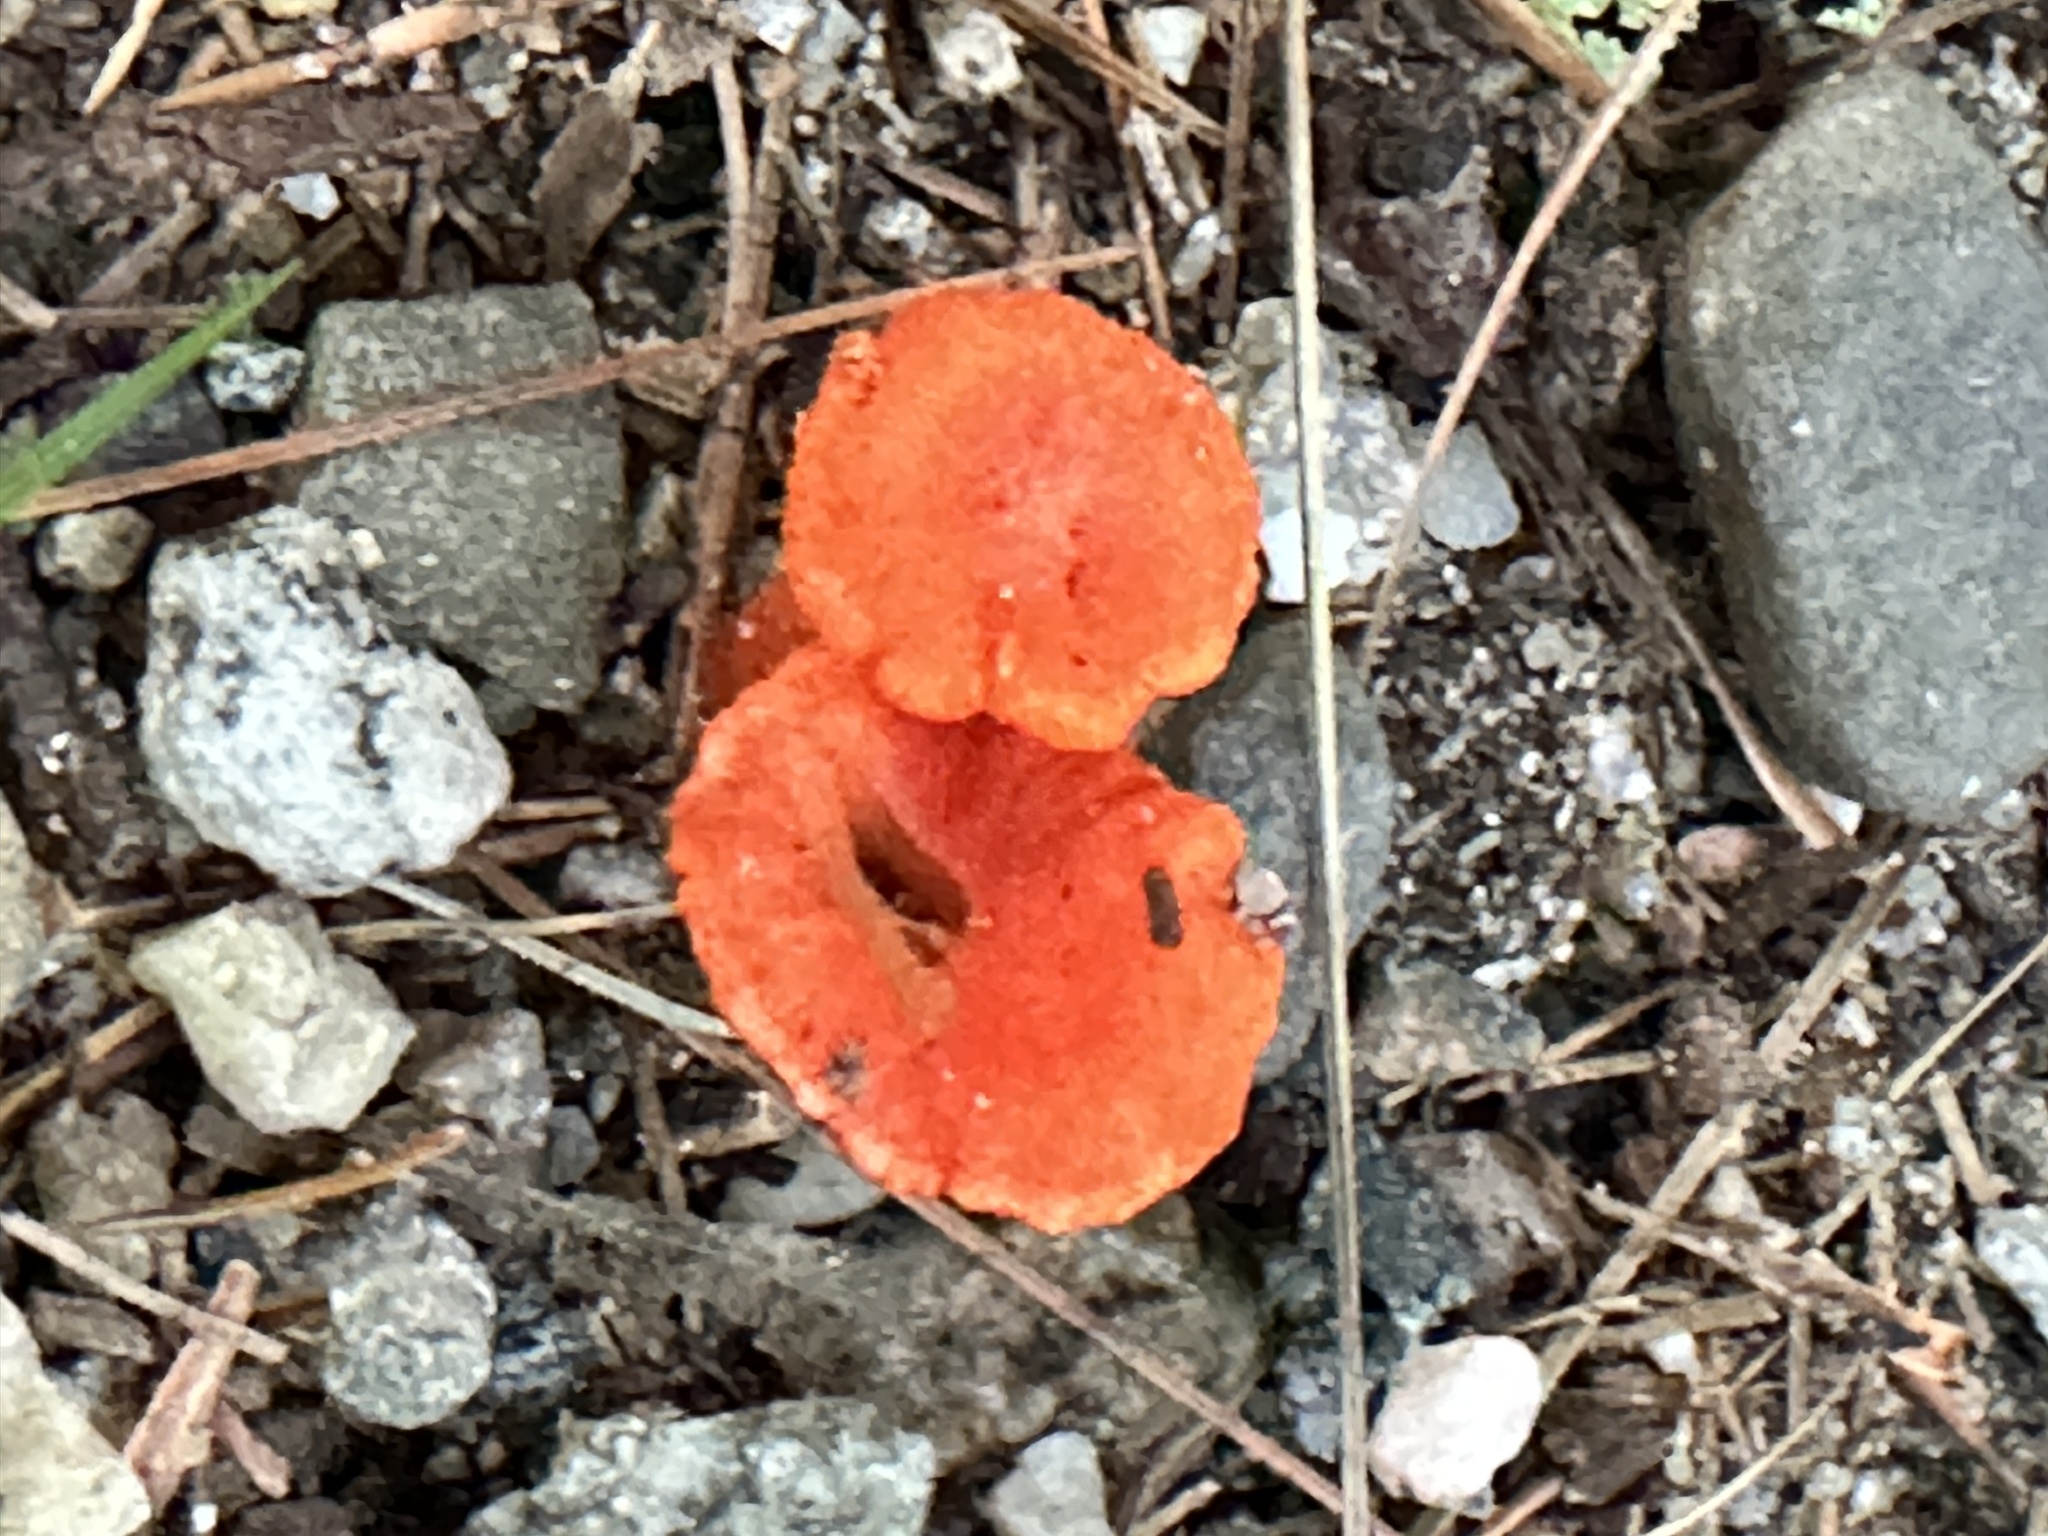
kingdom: Fungi
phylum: Basidiomycota
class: Agaricomycetes
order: Cantharellales
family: Hydnaceae
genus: Cantharellus
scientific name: Cantharellus cinnabarinus
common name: Cinnabar chanterelle
